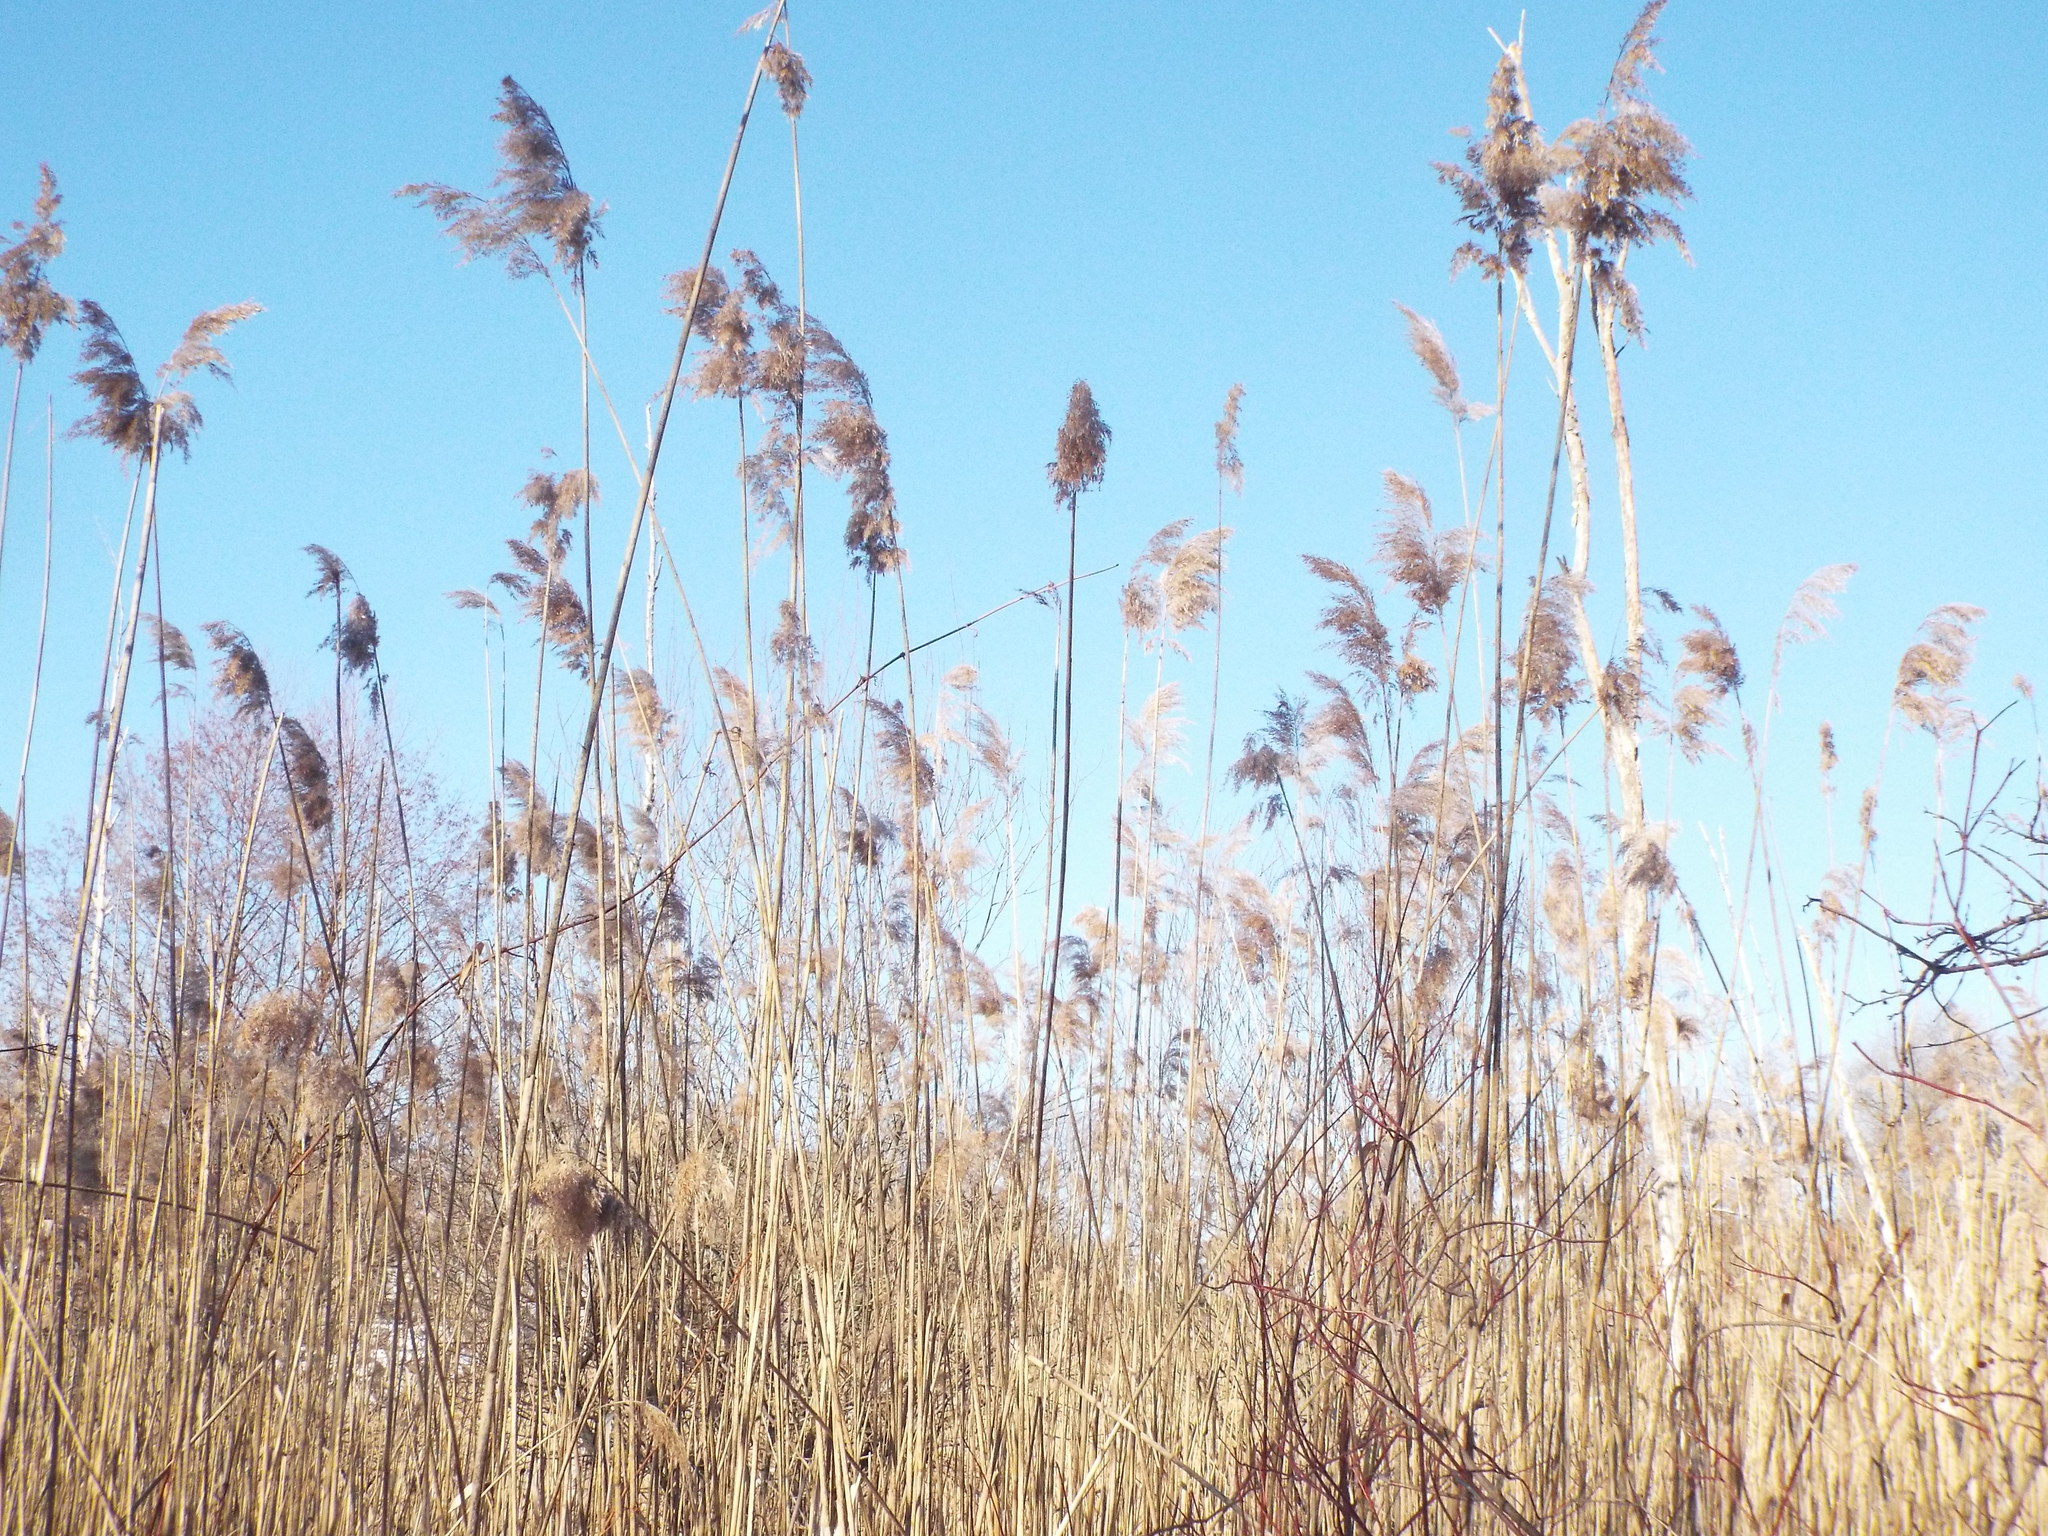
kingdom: Plantae
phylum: Tracheophyta
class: Liliopsida
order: Poales
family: Poaceae
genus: Phragmites
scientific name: Phragmites australis
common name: Common reed
